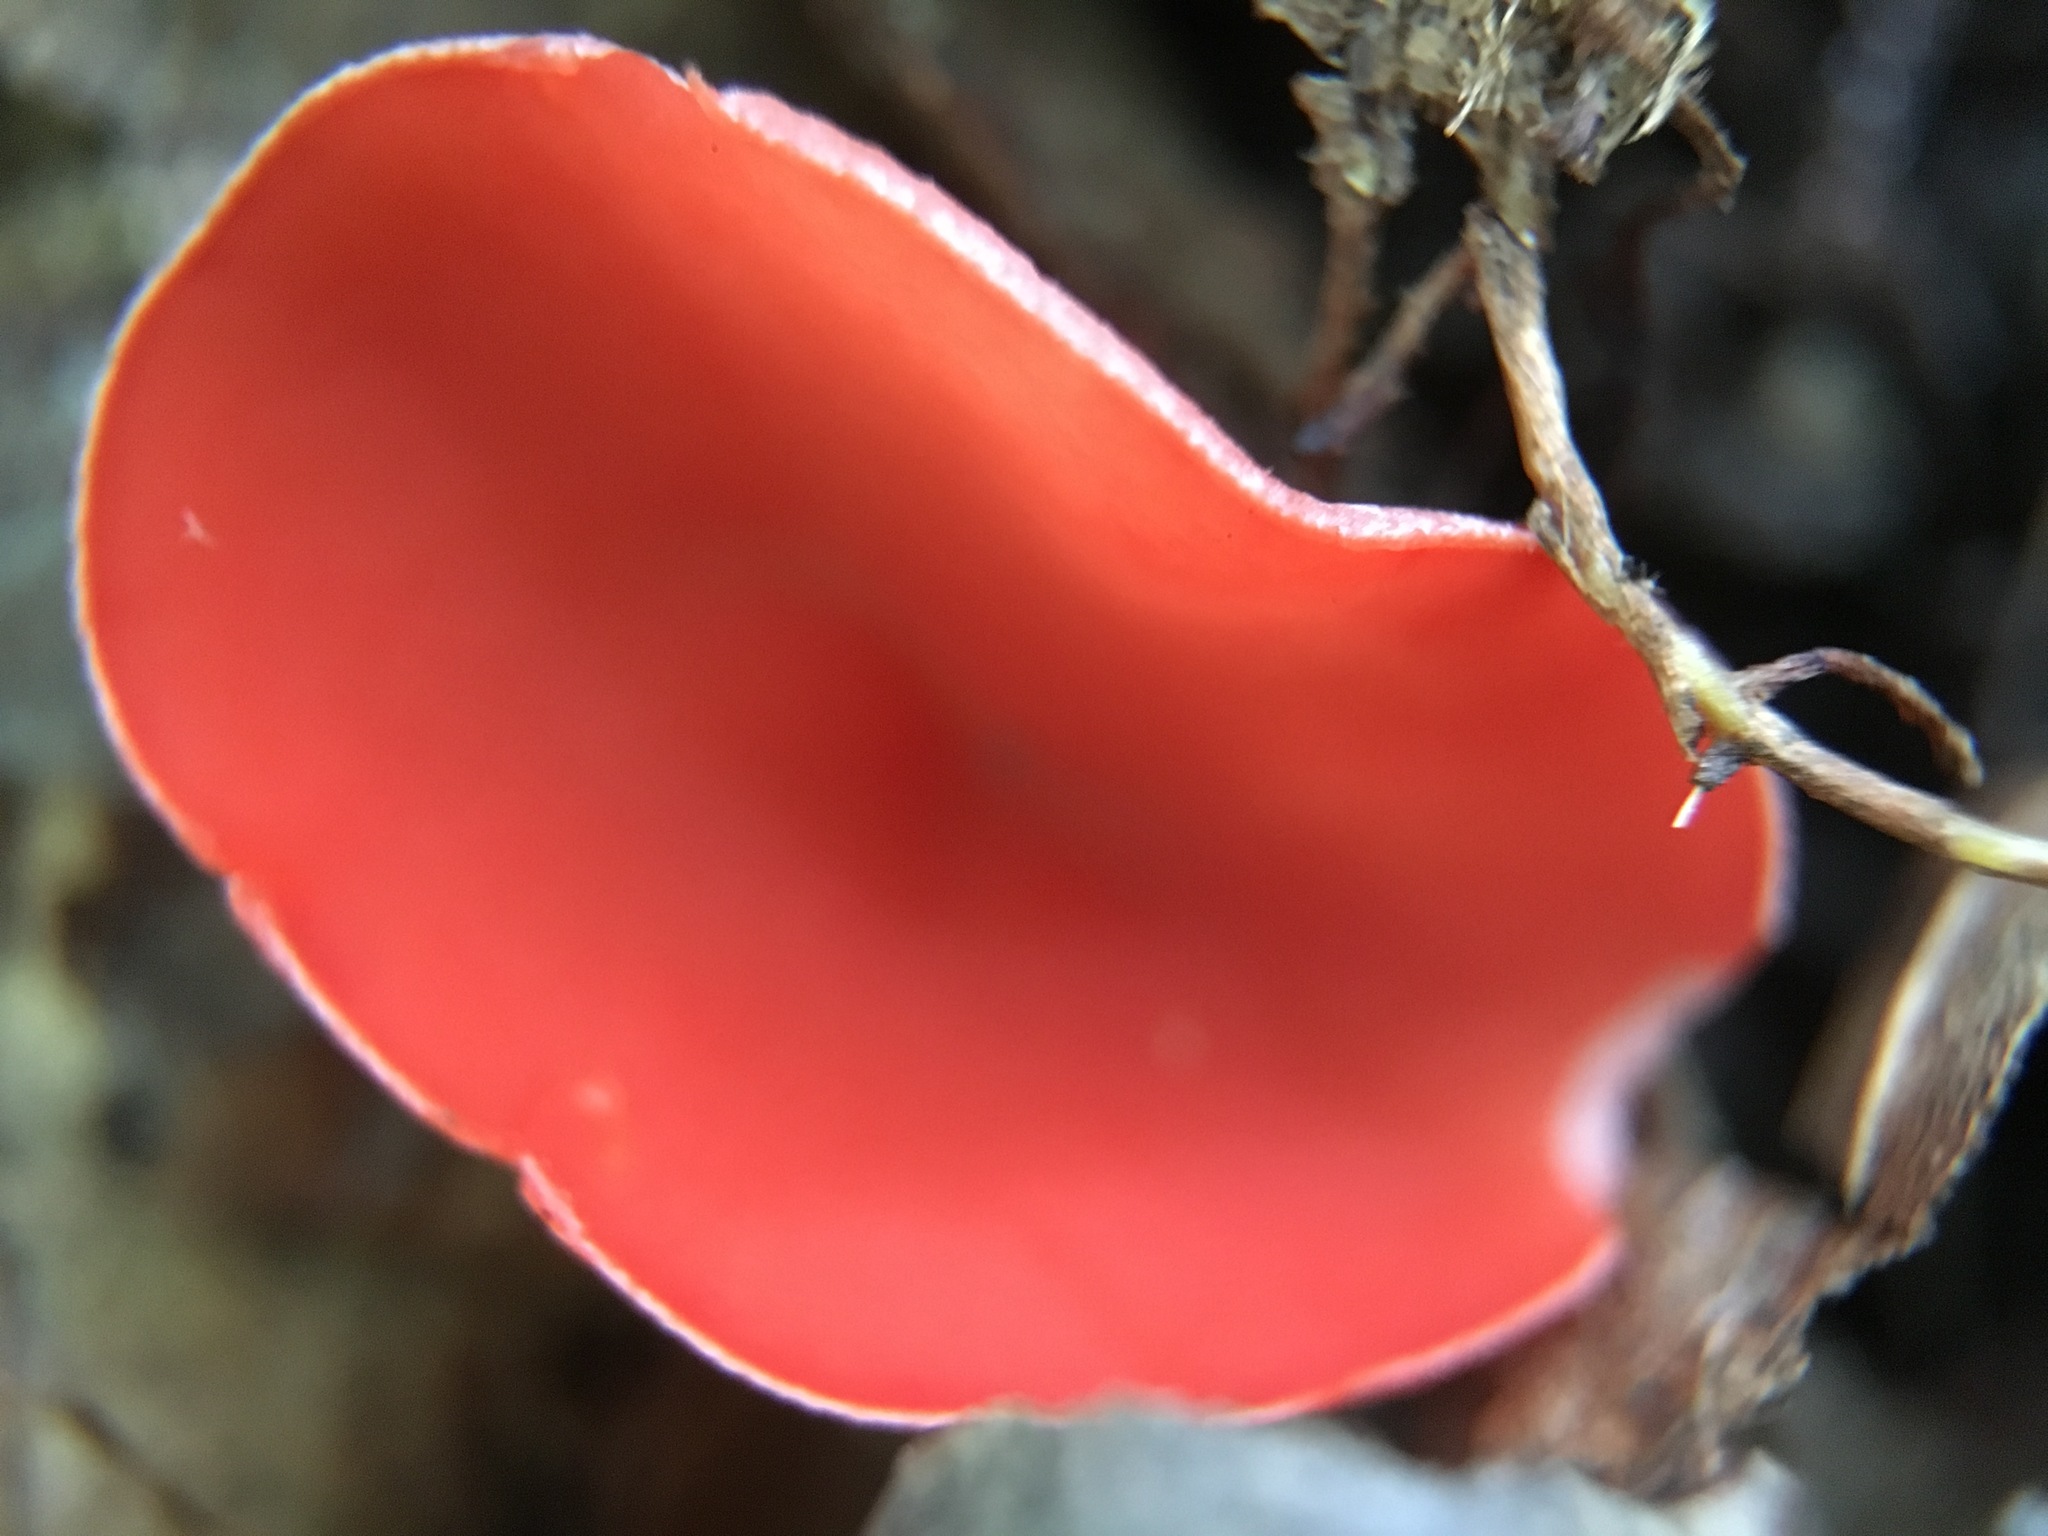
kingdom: Fungi
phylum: Ascomycota
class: Pezizomycetes
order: Pezizales
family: Sarcoscyphaceae
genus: Sarcoscypha
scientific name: Sarcoscypha occidentalis
